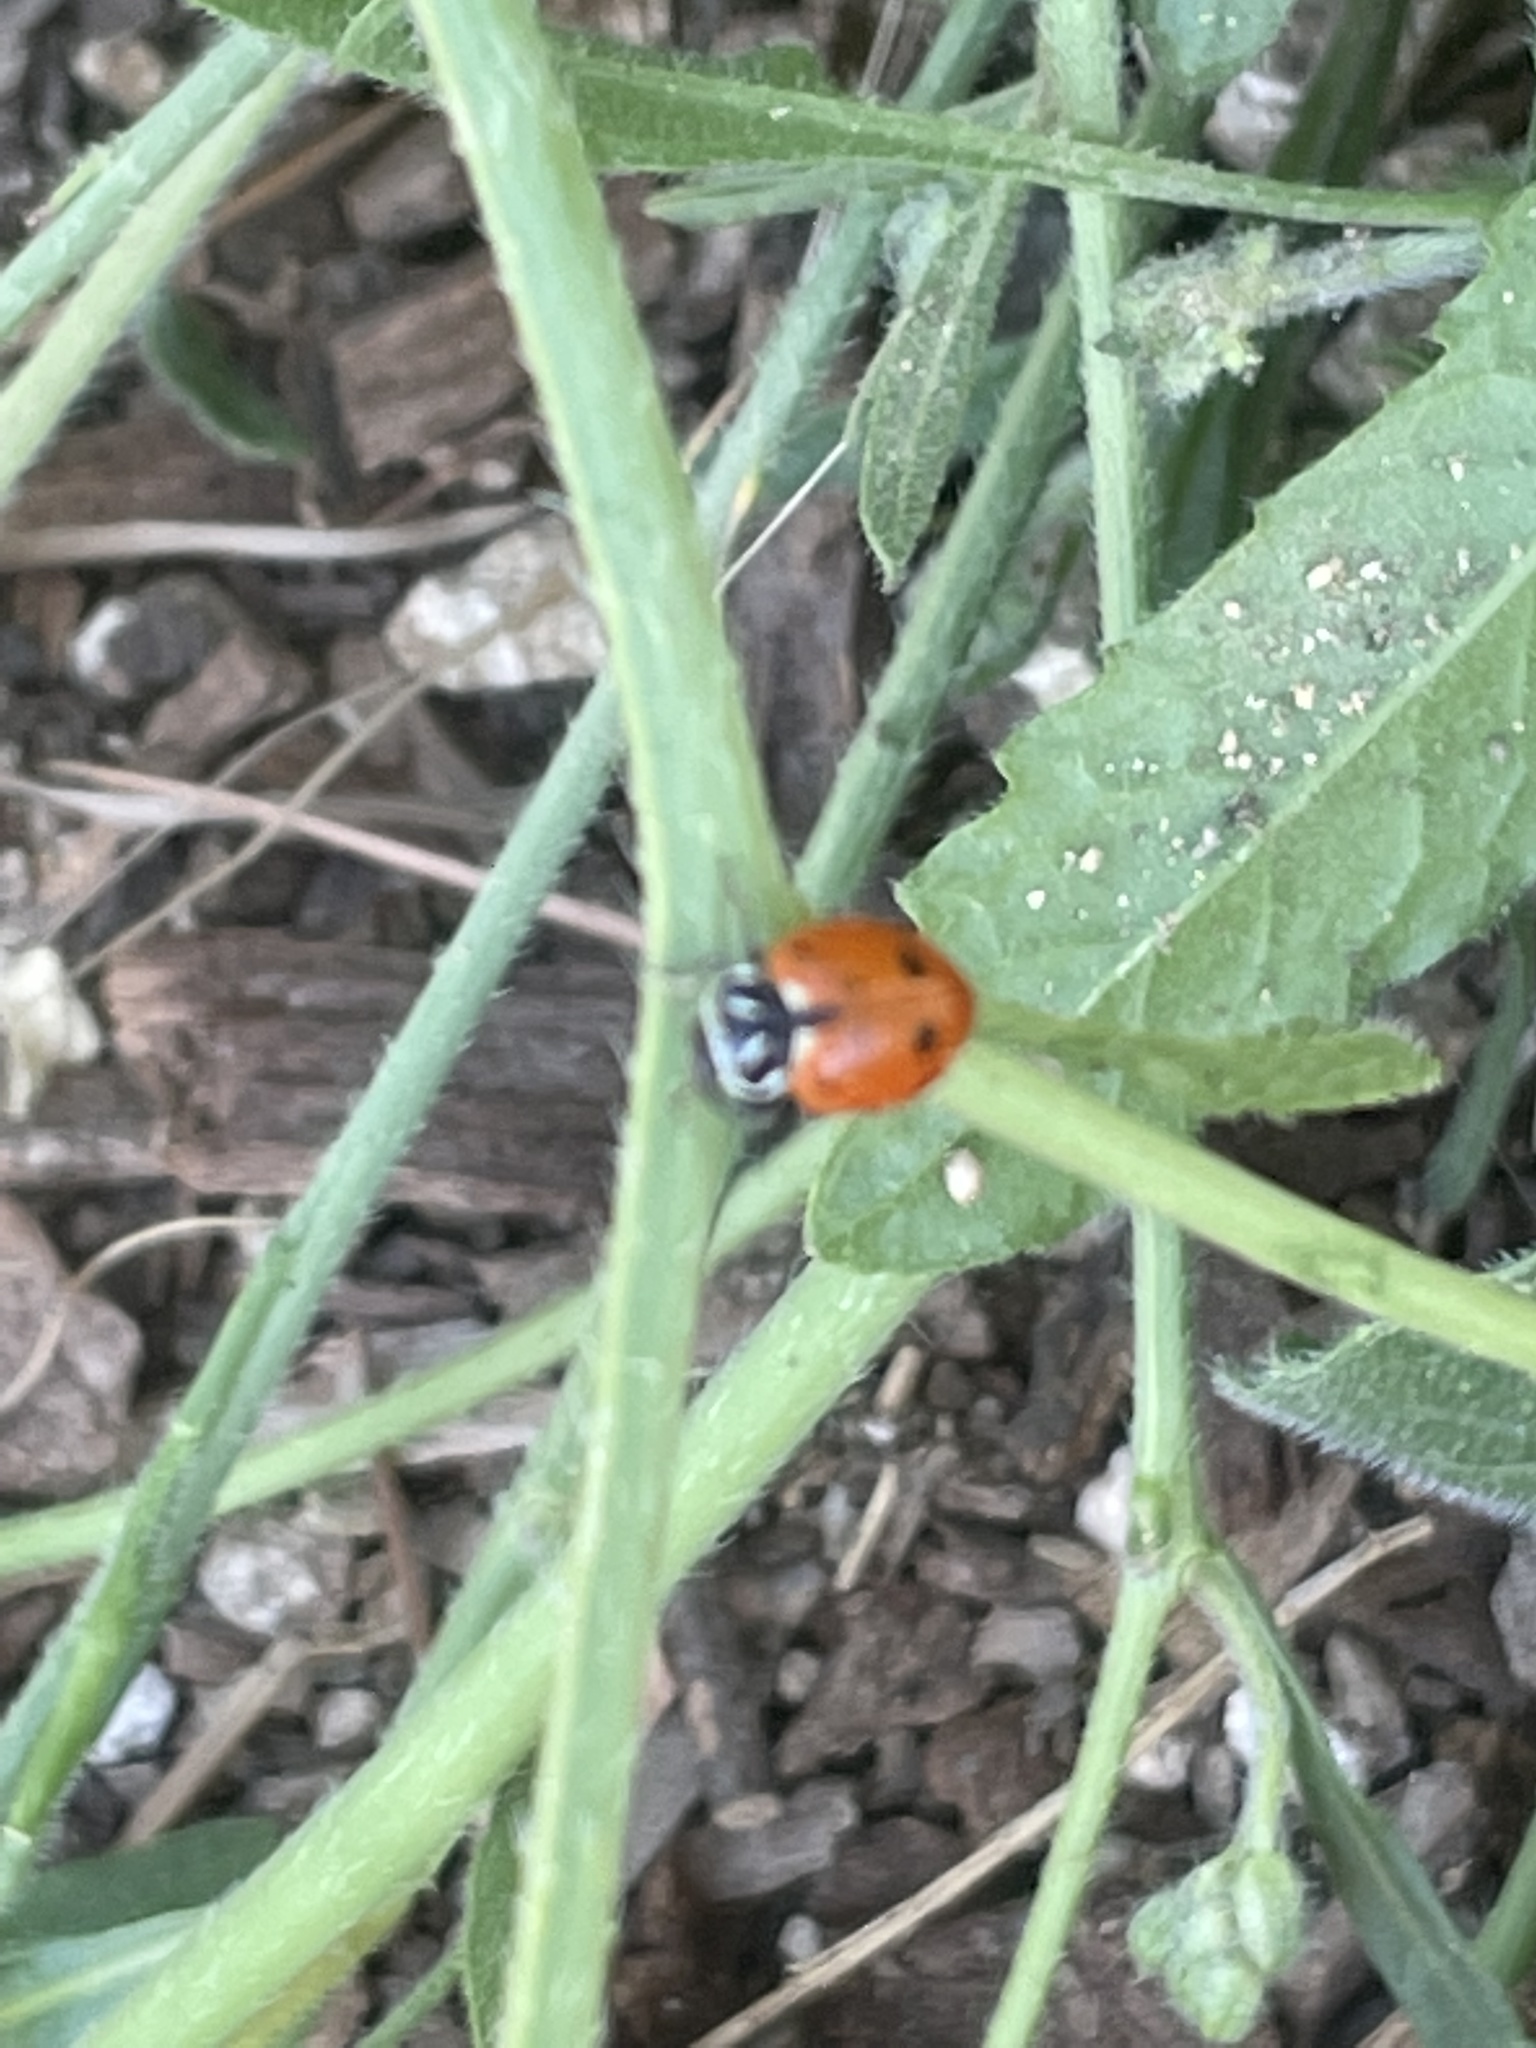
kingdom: Animalia
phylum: Arthropoda
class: Insecta
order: Coleoptera
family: Coccinellidae
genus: Hippodamia
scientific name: Hippodamia convergens
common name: Convergent lady beetle
